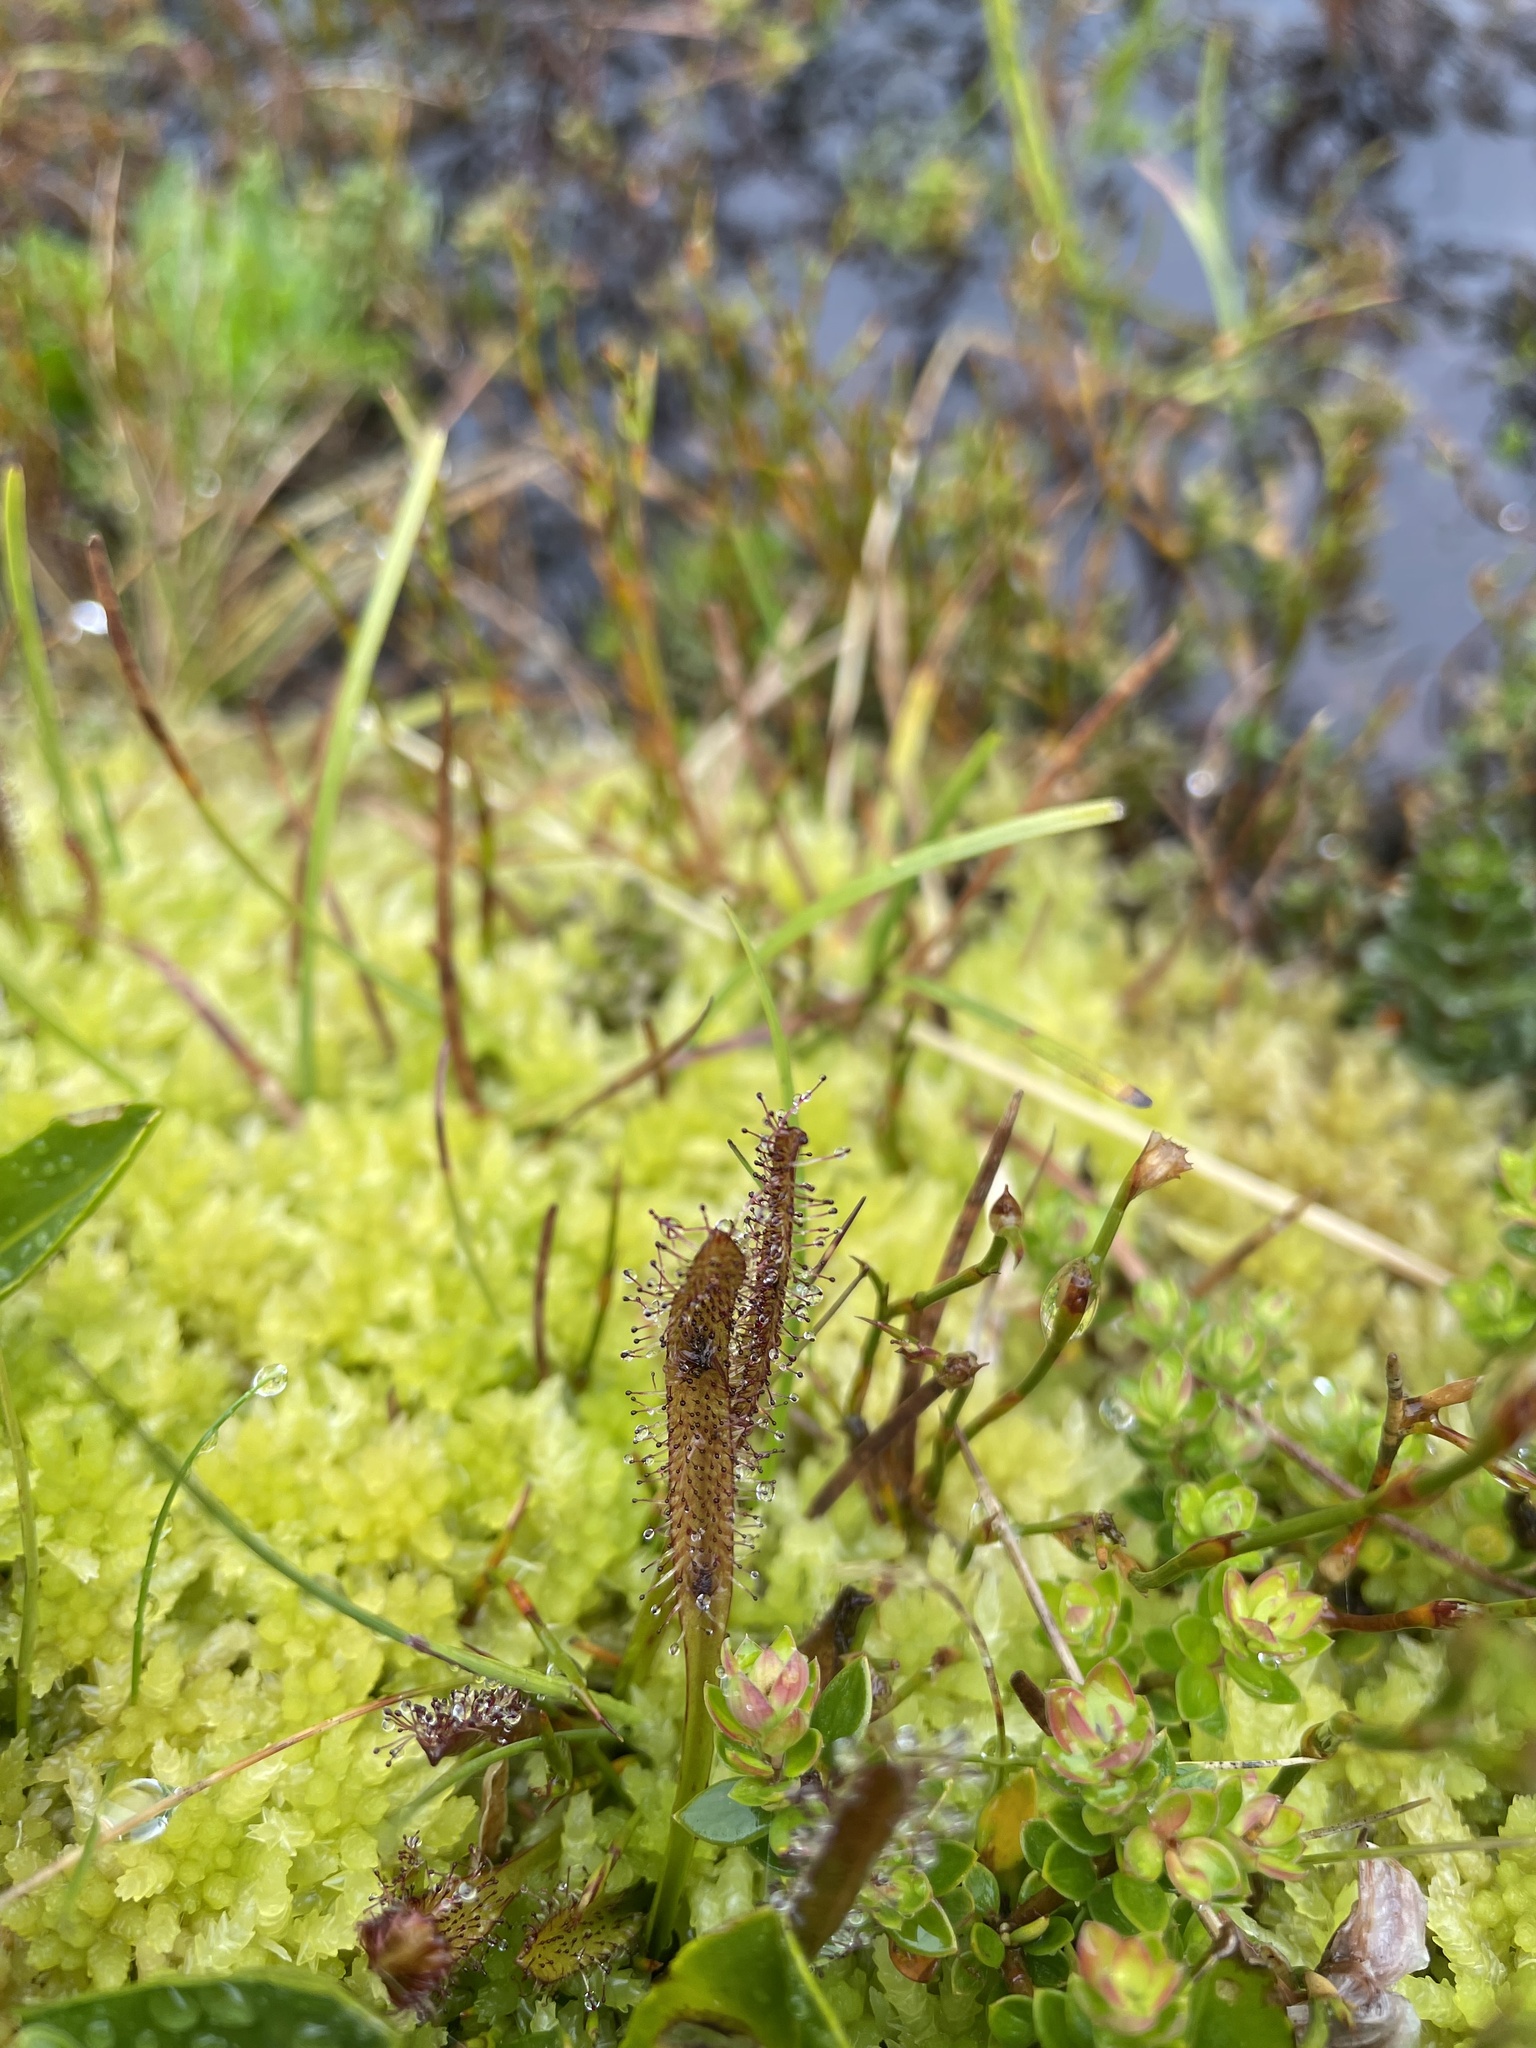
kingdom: Plantae
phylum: Tracheophyta
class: Magnoliopsida
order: Caryophyllales
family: Droseraceae
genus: Drosera
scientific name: Drosera arcturi
